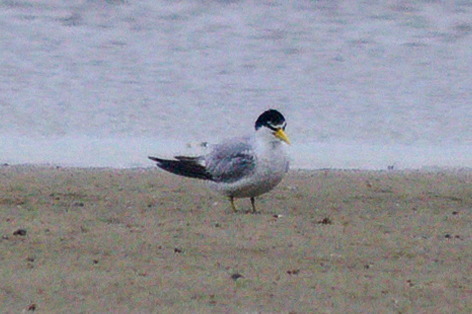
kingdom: Animalia
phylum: Chordata
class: Aves
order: Charadriiformes
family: Laridae
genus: Sternula
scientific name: Sternula superciliaris
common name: Yellow-billed tern
